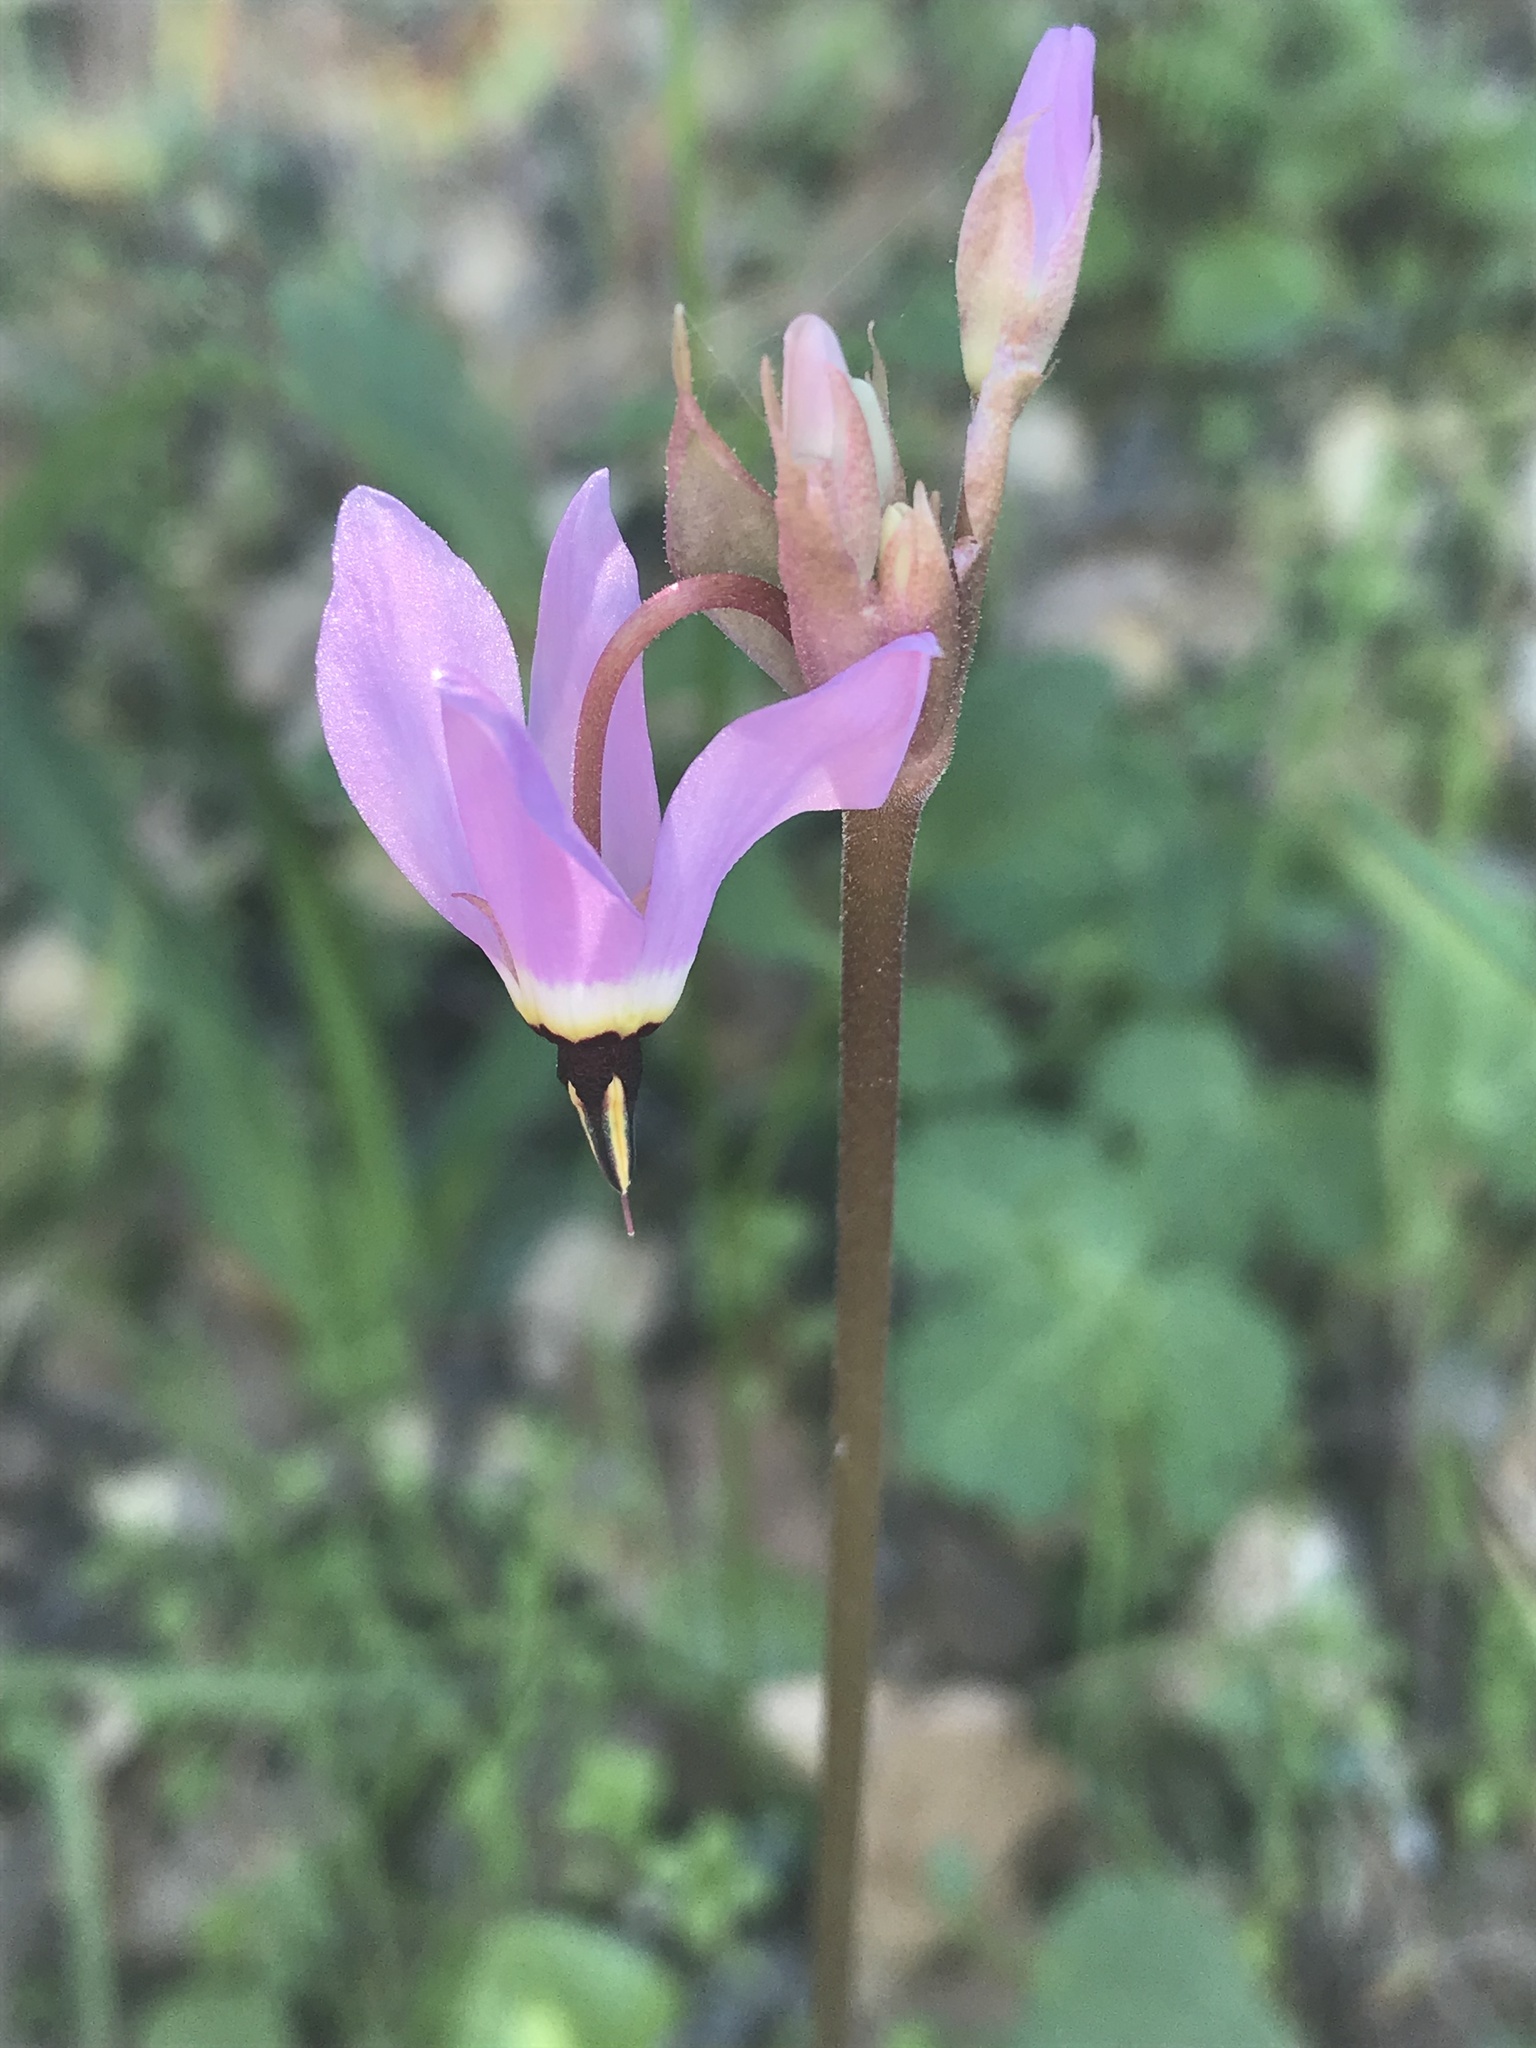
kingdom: Plantae
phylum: Tracheophyta
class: Magnoliopsida
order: Ericales
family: Primulaceae
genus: Dodecatheon
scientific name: Dodecatheon hendersonii
